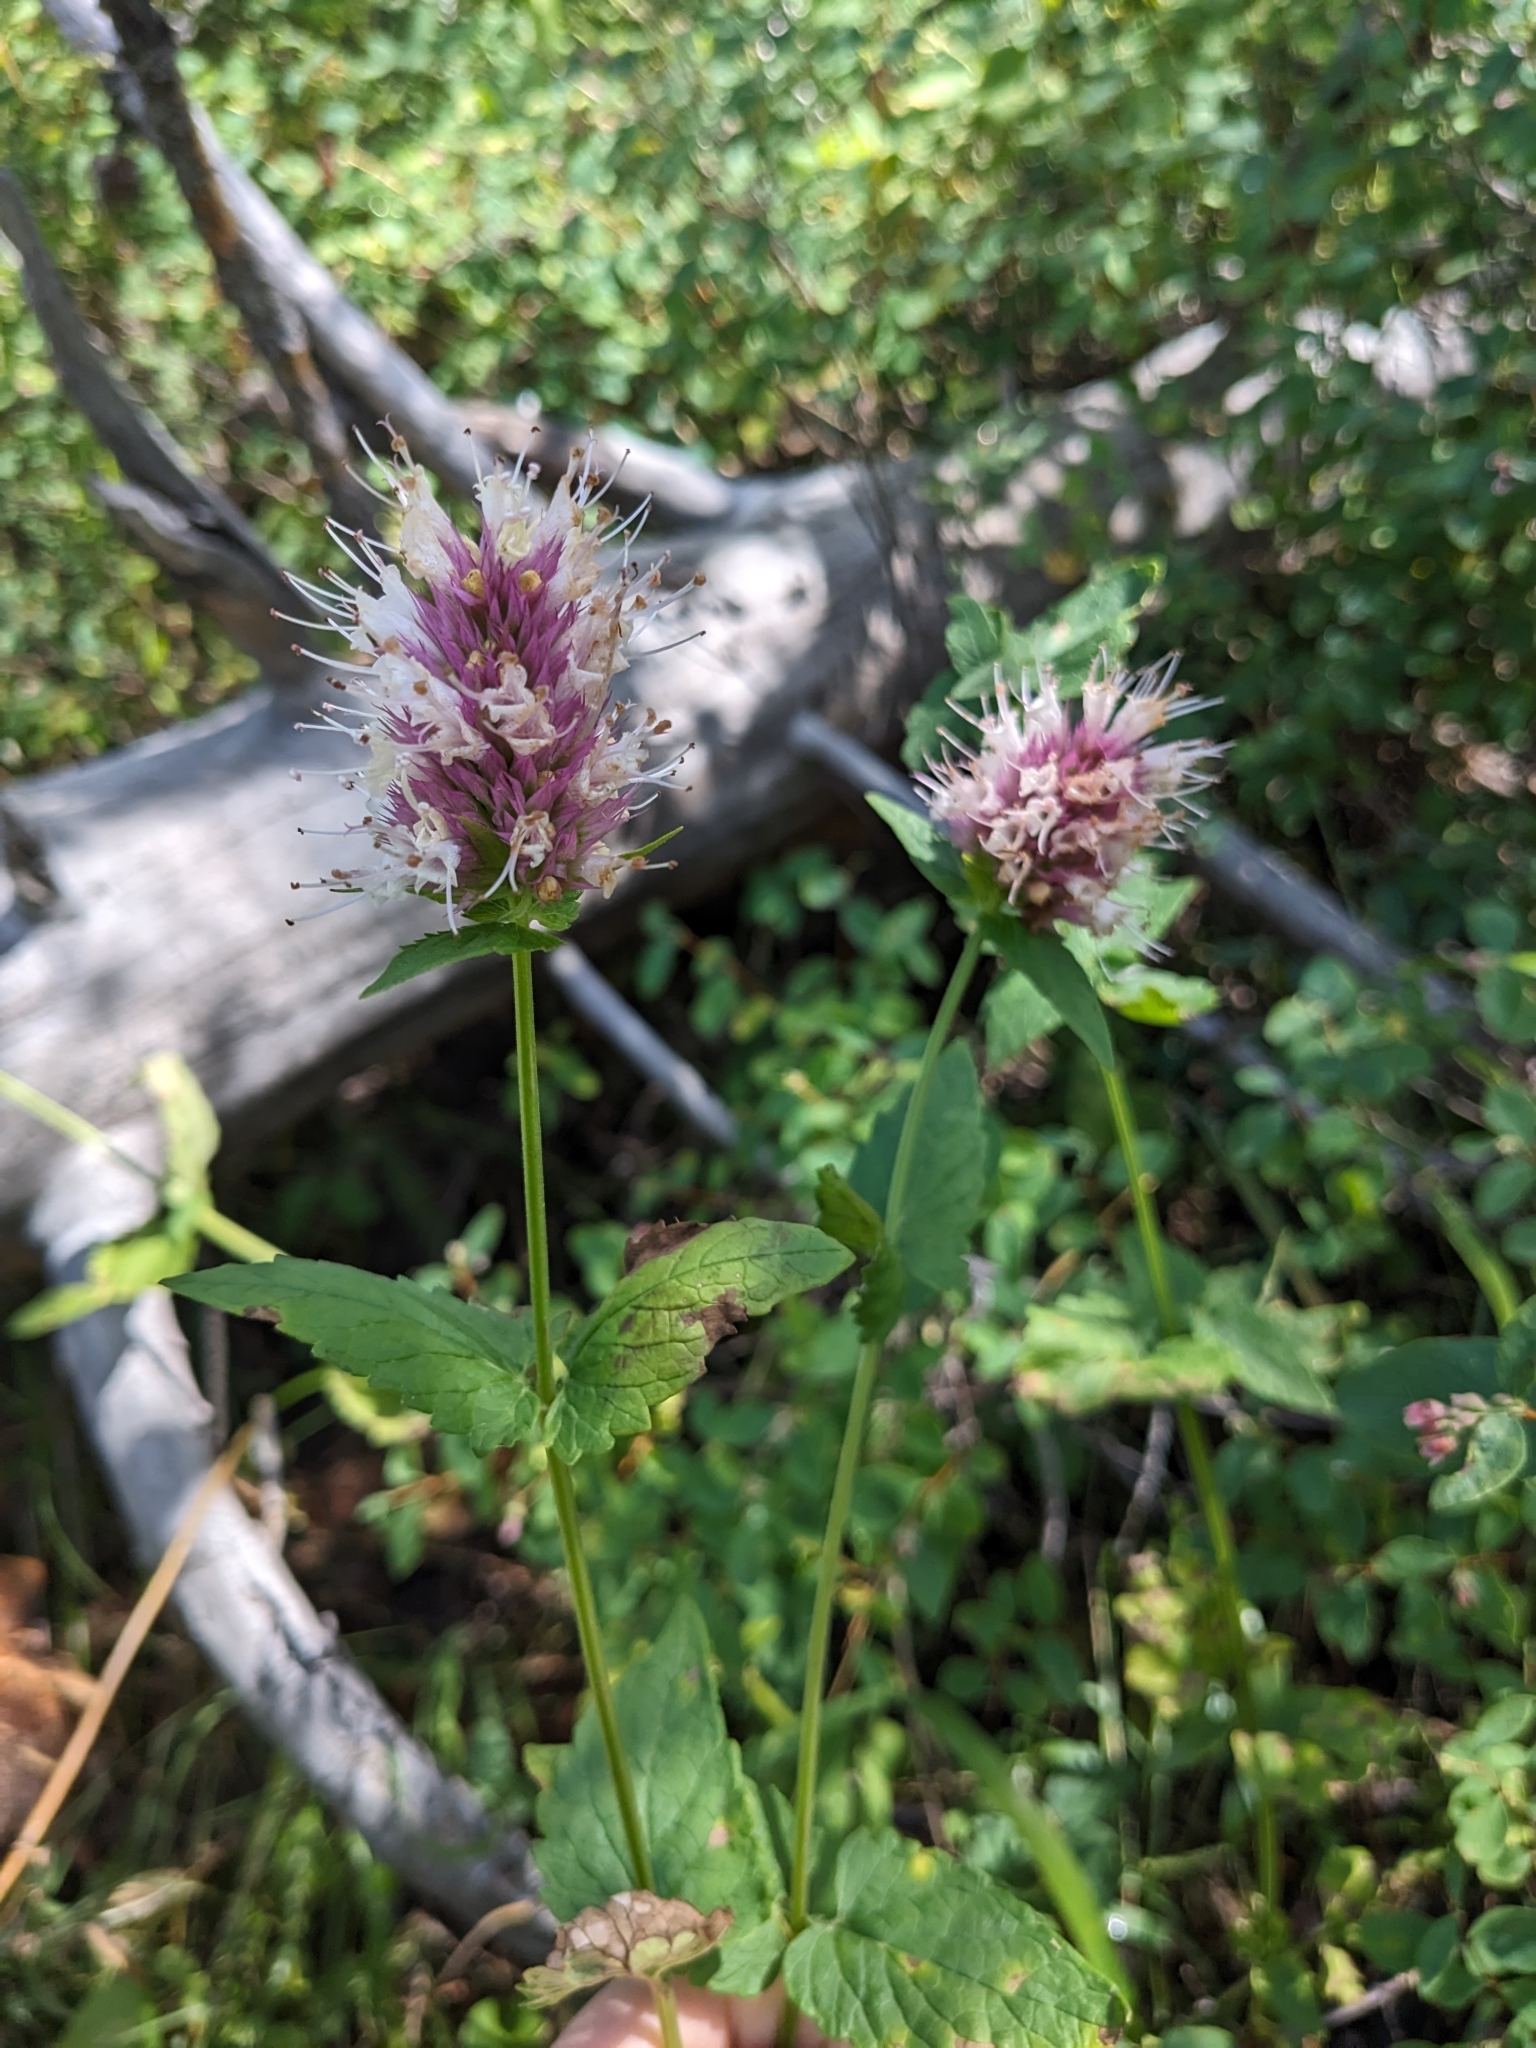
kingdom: Plantae
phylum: Tracheophyta
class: Magnoliopsida
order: Lamiales
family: Lamiaceae
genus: Agastache
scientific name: Agastache urticifolia
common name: Horsemint giant hyssop
